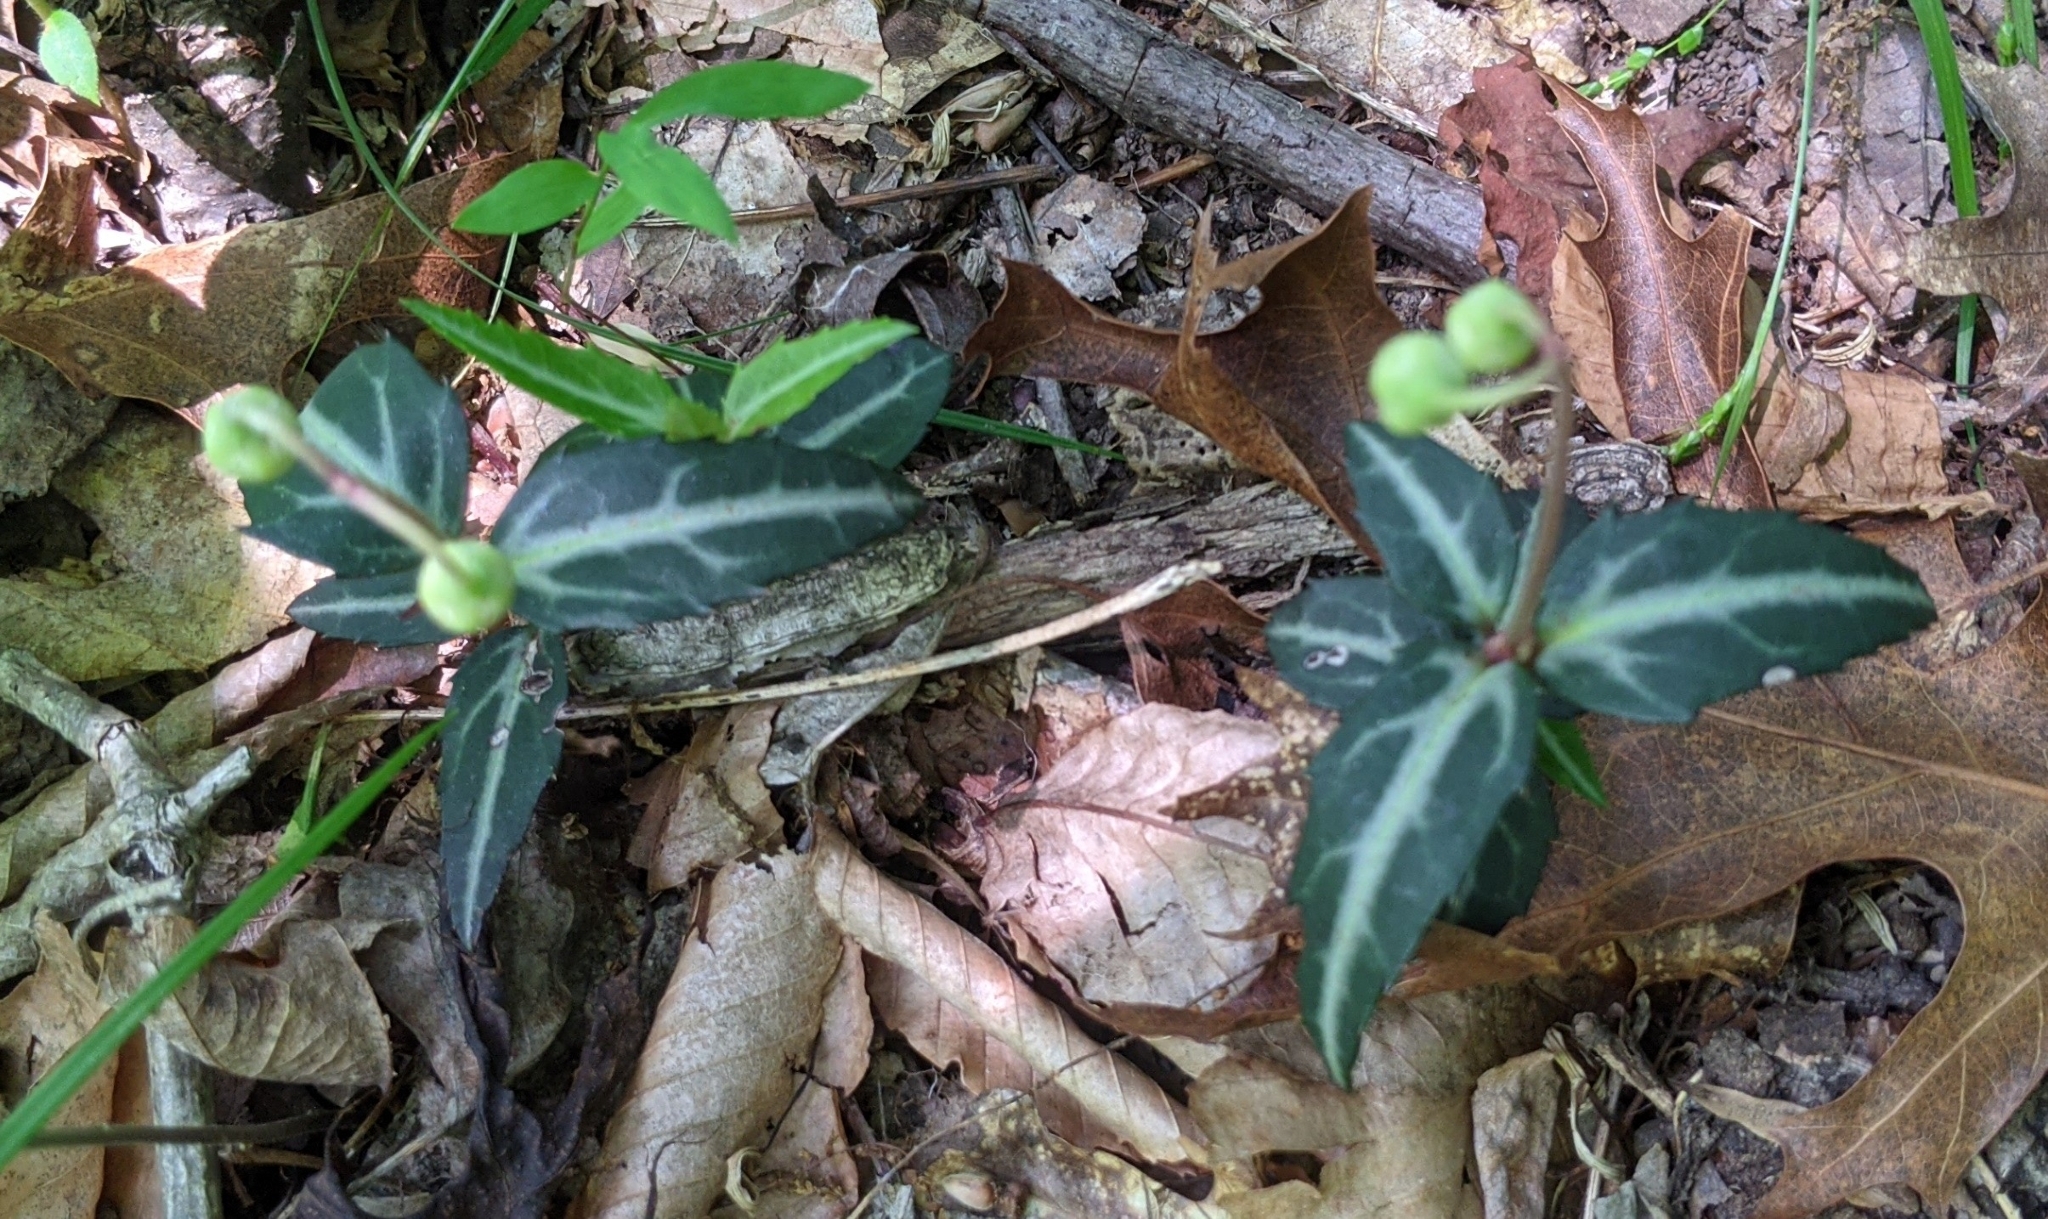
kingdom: Plantae
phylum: Tracheophyta
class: Magnoliopsida
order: Ericales
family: Ericaceae
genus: Chimaphila
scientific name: Chimaphila maculata
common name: Spotted pipsissewa
